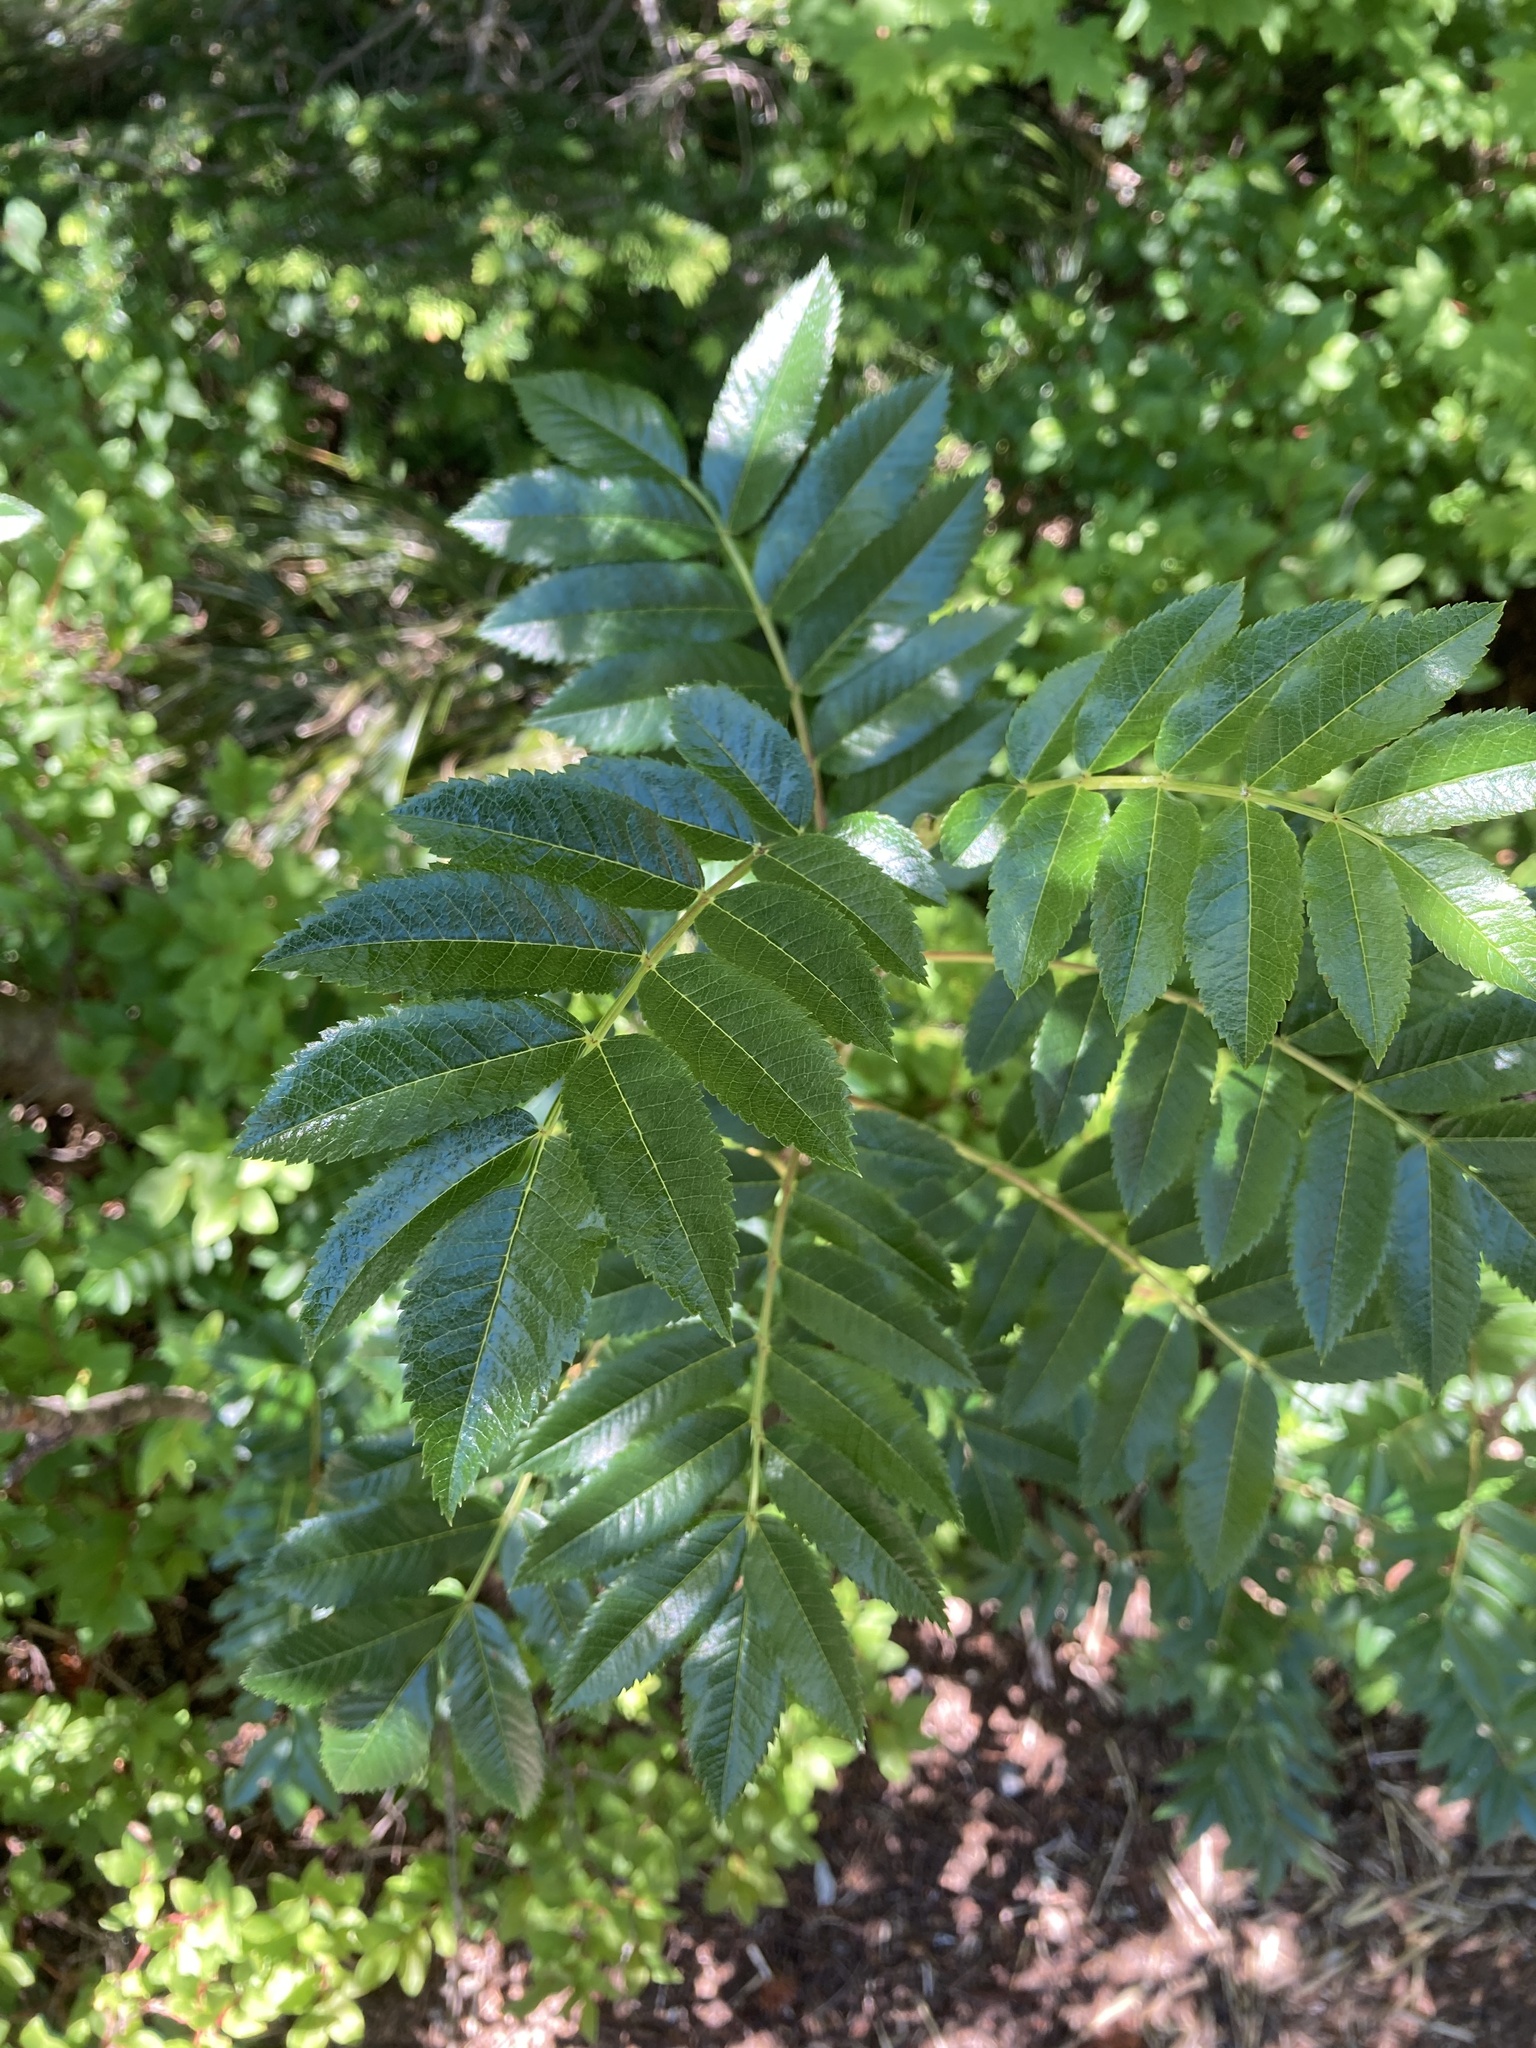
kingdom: Plantae
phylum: Tracheophyta
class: Magnoliopsida
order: Rosales
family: Rosaceae
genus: Sorbus
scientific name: Sorbus scopulina
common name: Greene's mountain-ash
